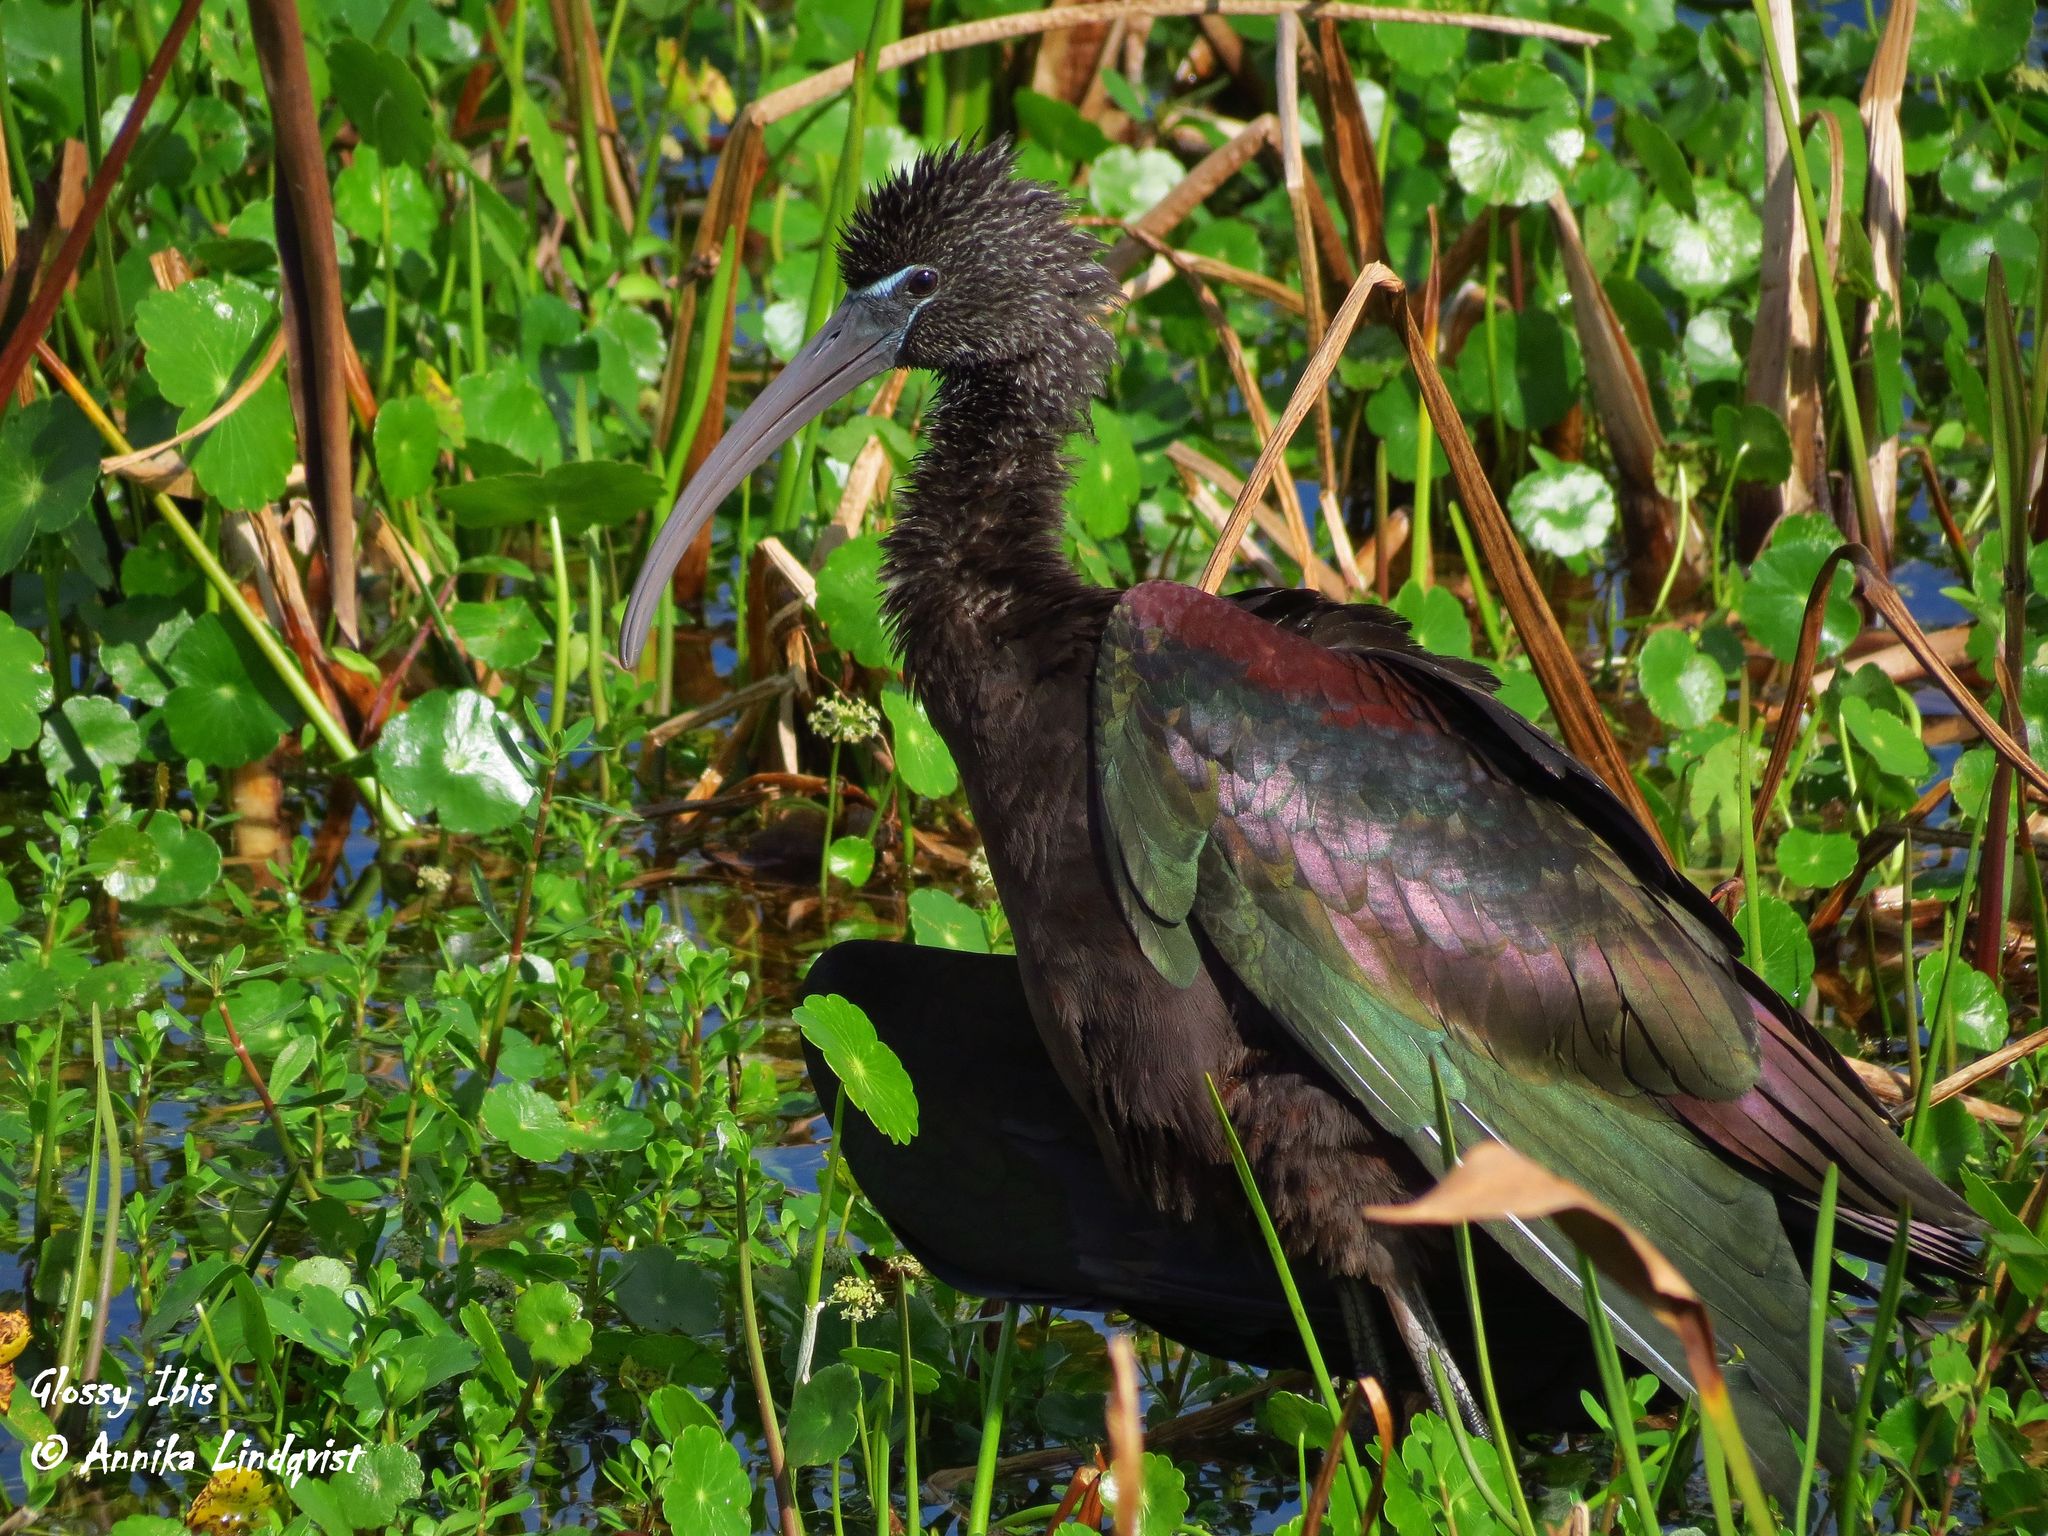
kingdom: Animalia
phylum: Chordata
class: Aves
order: Pelecaniformes
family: Threskiornithidae
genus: Plegadis
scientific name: Plegadis falcinellus
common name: Glossy ibis
